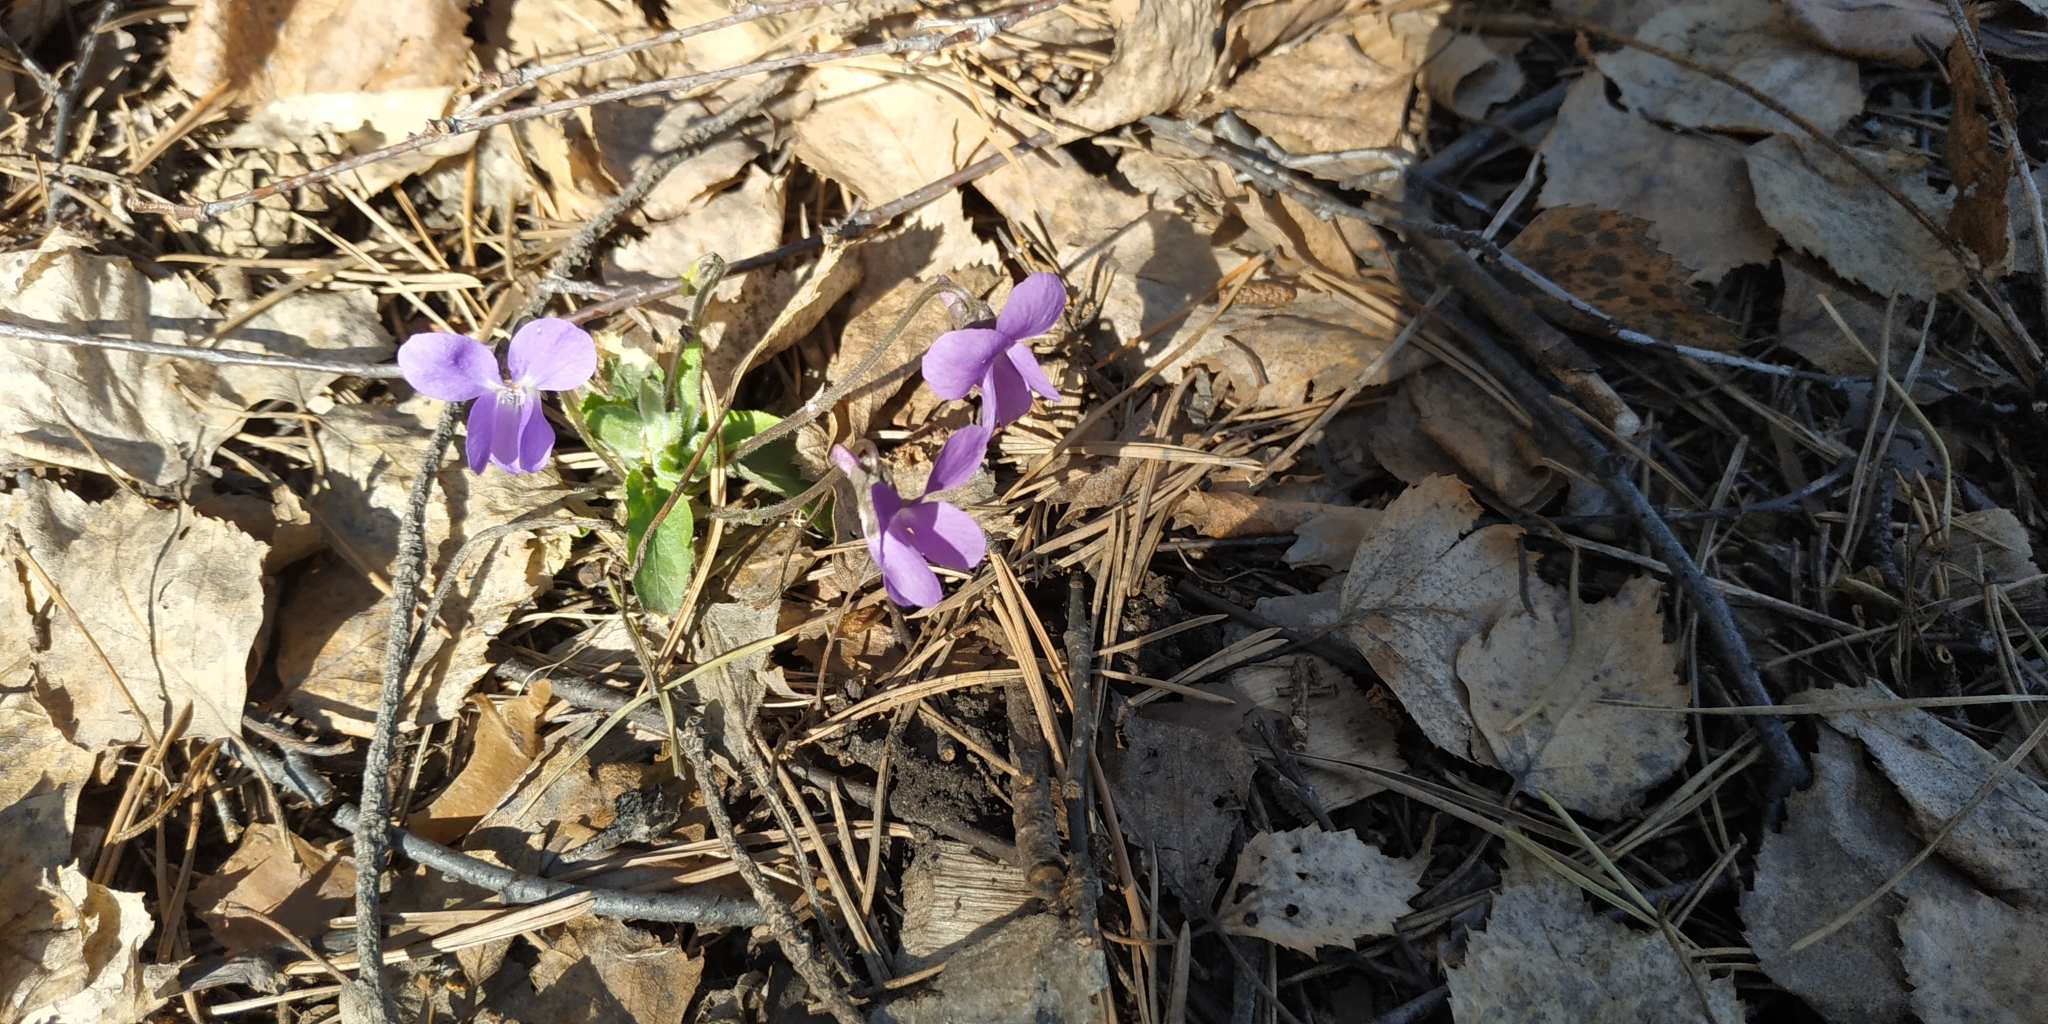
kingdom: Plantae
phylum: Tracheophyta
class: Magnoliopsida
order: Malpighiales
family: Violaceae
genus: Viola
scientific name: Viola hirta
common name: Hairy violet
